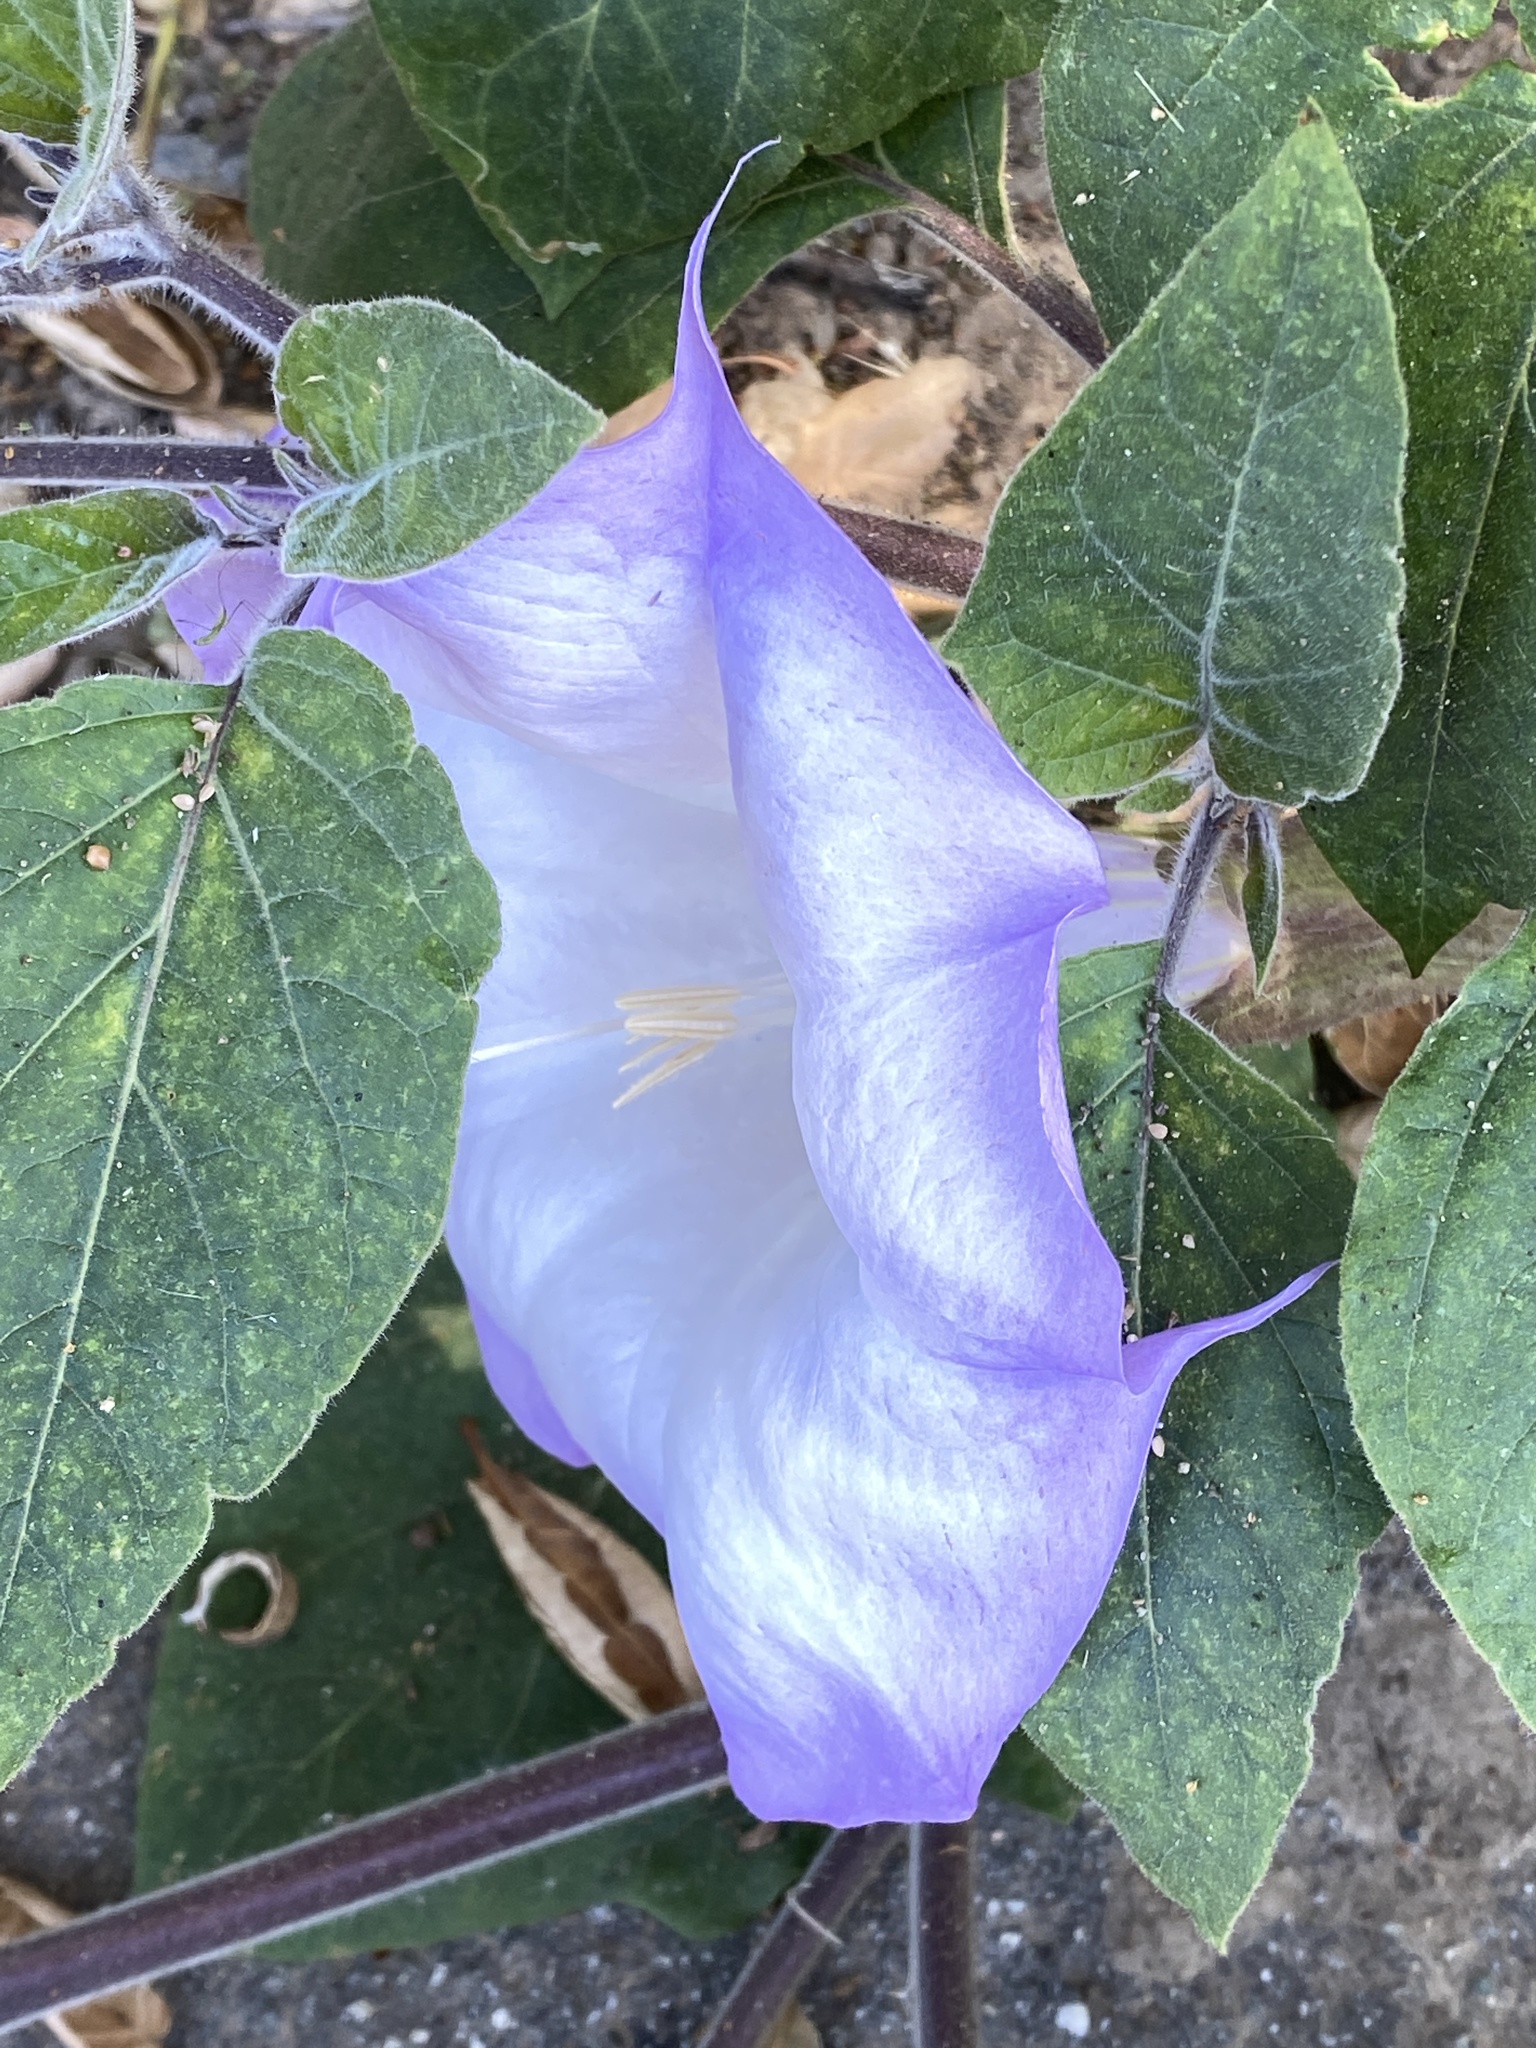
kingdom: Plantae
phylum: Tracheophyta
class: Magnoliopsida
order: Solanales
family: Solanaceae
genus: Datura
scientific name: Datura wrightii
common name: Sacred thorn-apple
